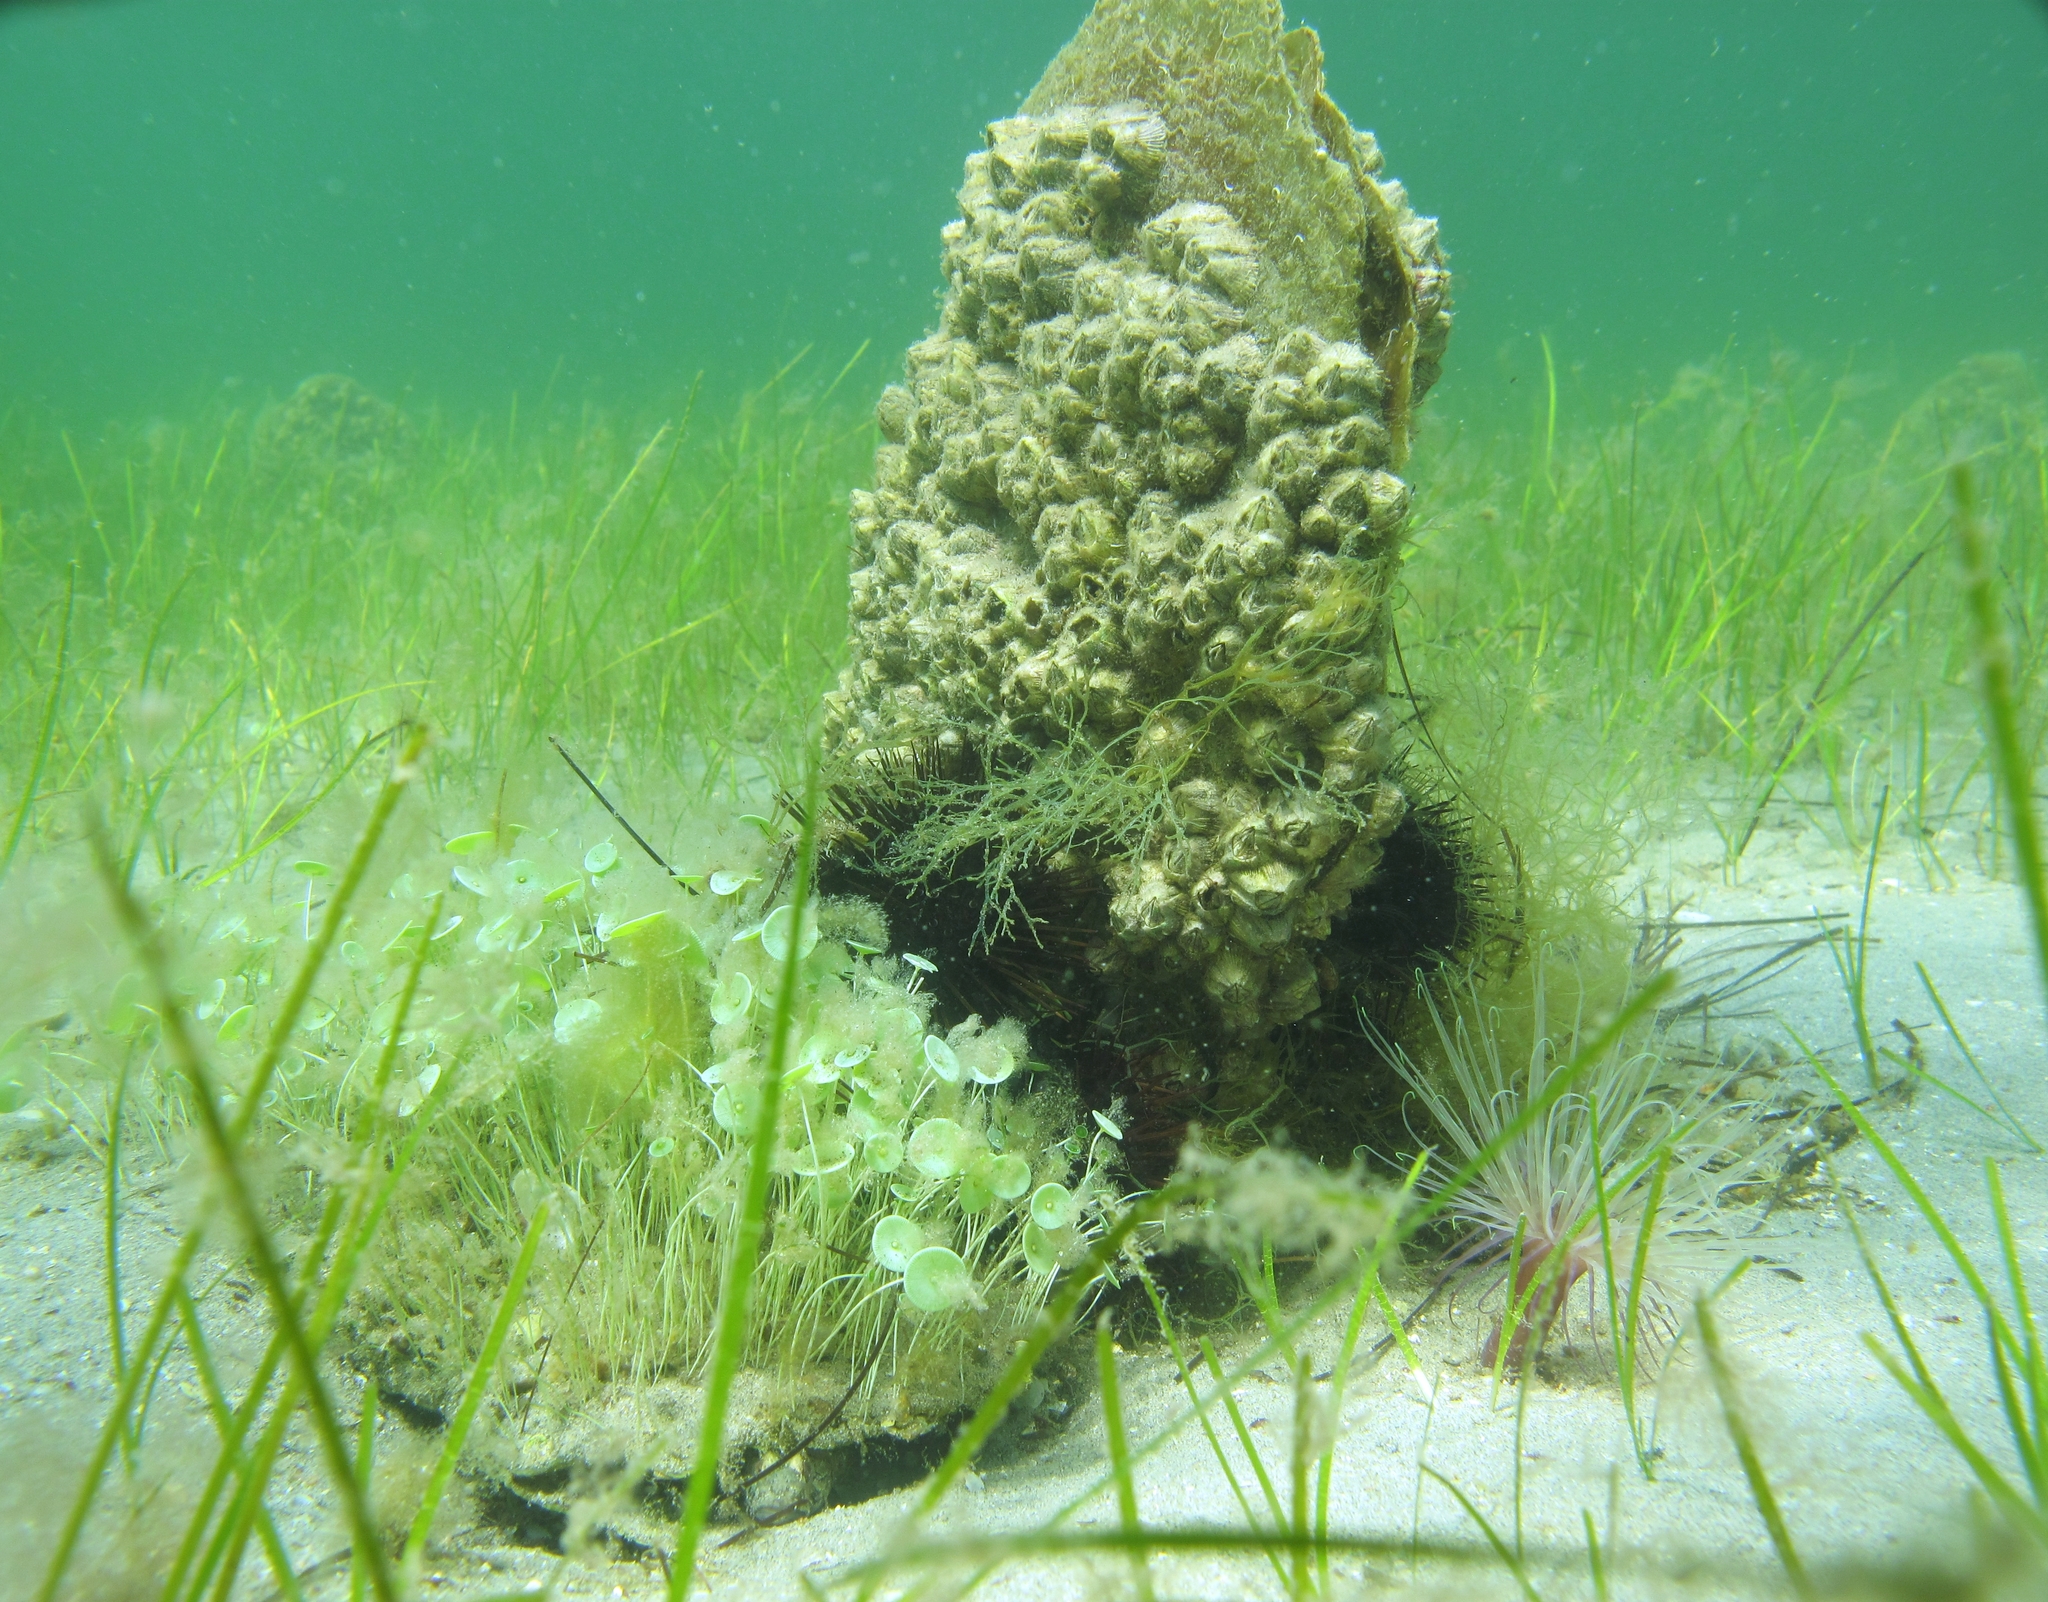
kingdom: Animalia
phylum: Mollusca
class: Bivalvia
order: Ostreida
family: Pinnidae
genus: Pinna
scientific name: Pinna nobilis
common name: Fan mussel
